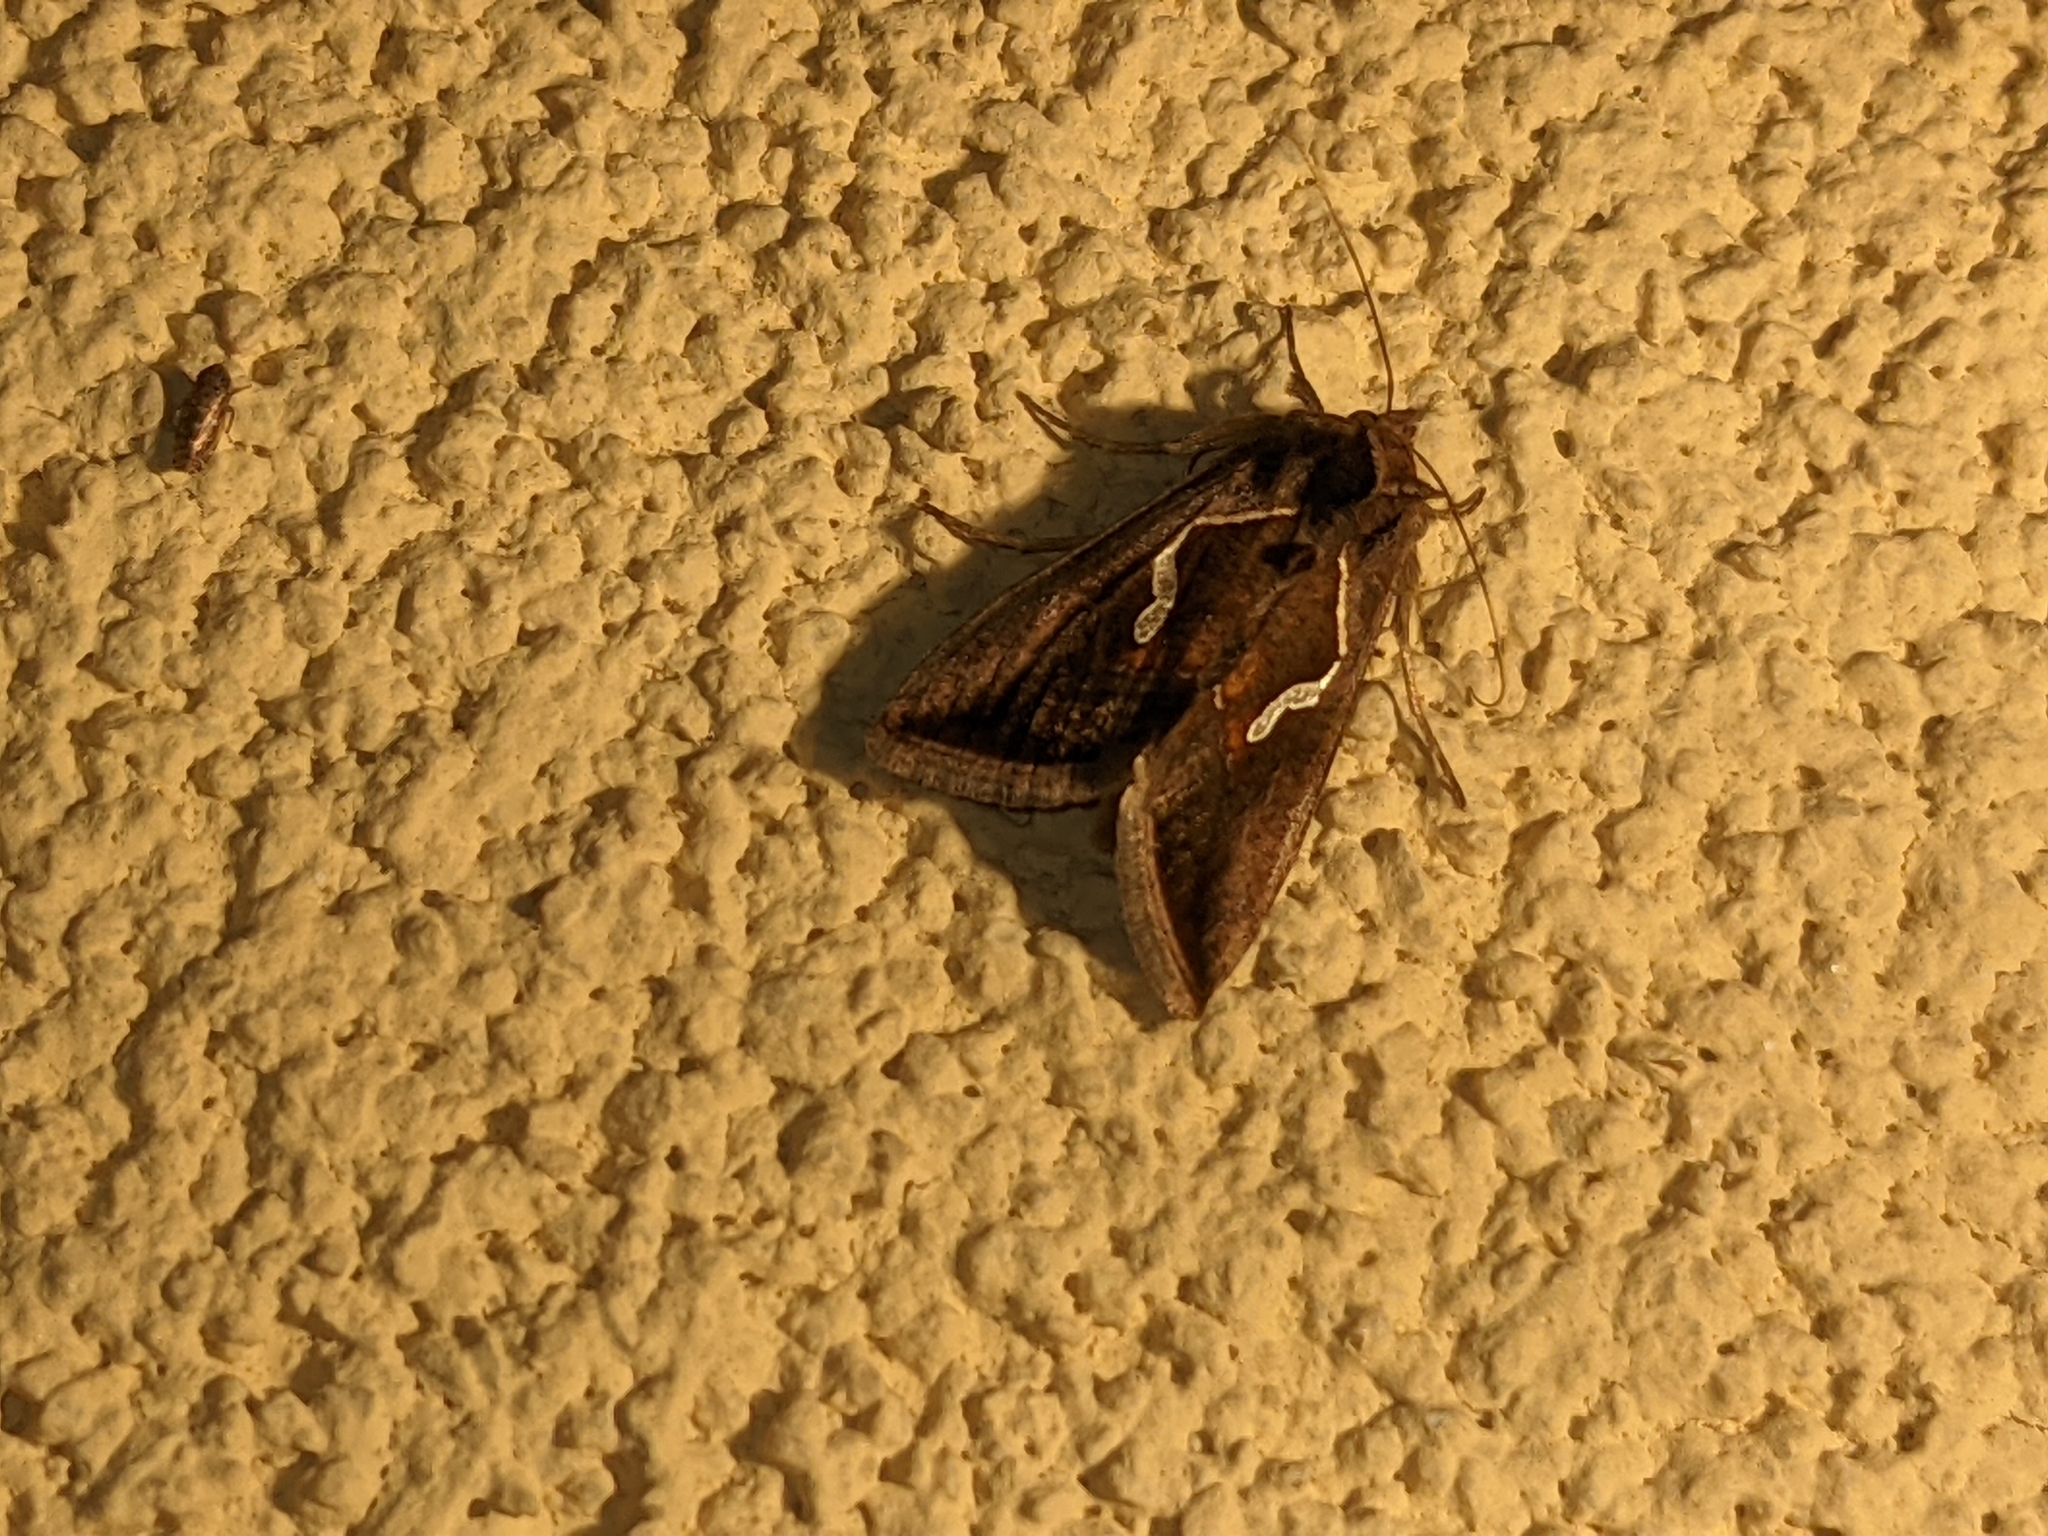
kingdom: Animalia
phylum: Arthropoda
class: Insecta
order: Lepidoptera
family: Noctuidae
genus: Macdunnoughia
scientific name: Macdunnoughia confusa
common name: Dewick's plusia
